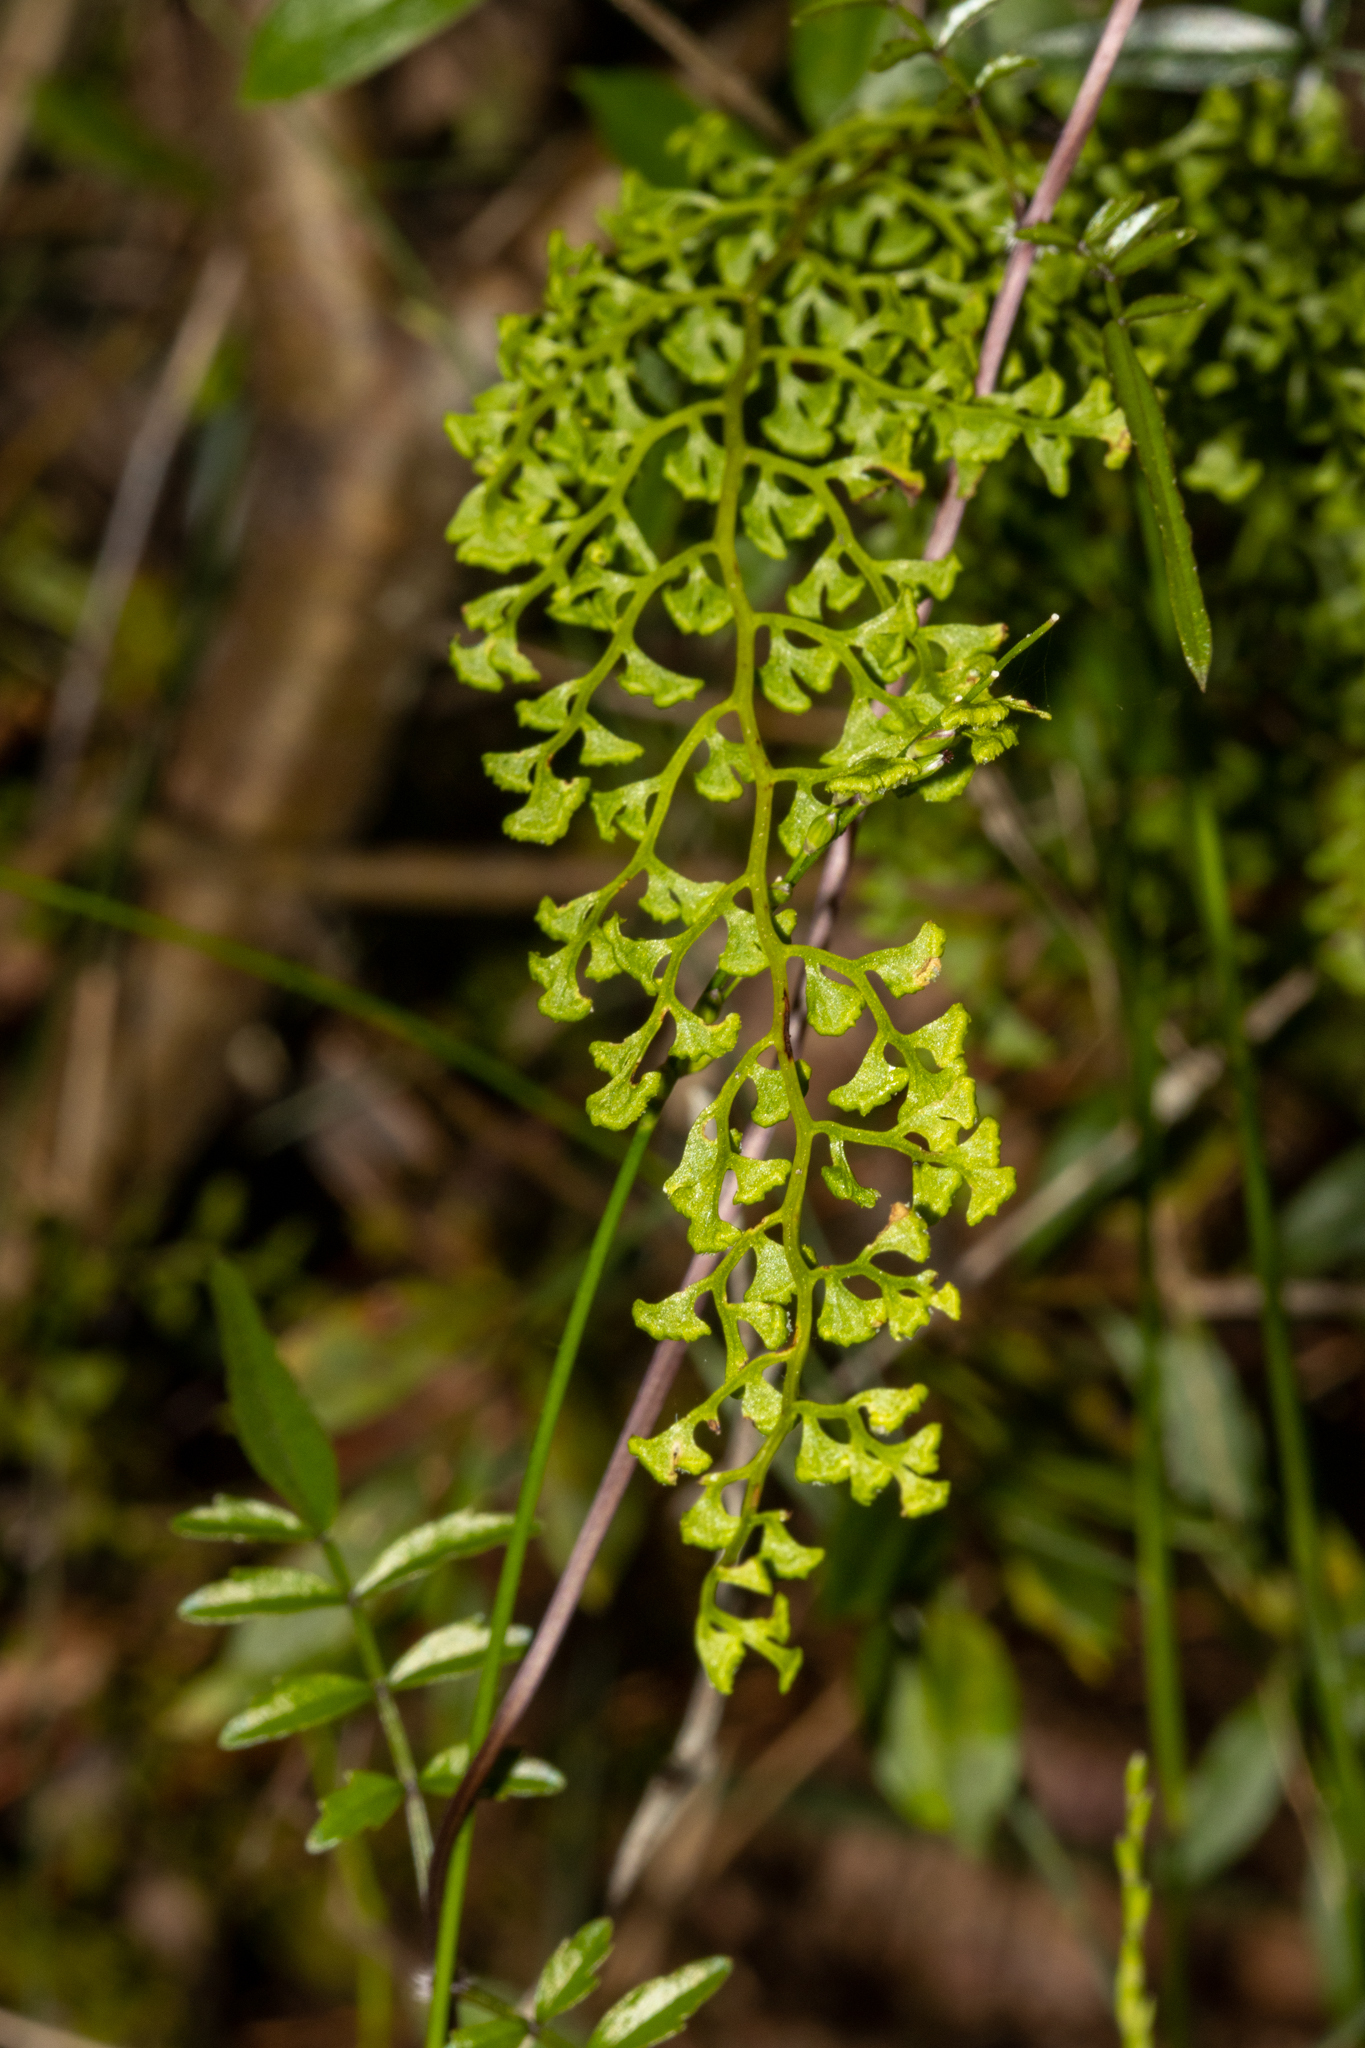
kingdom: Plantae
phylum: Tracheophyta
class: Polypodiopsida
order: Polypodiales
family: Lindsaeaceae
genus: Lindsaea
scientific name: Lindsaea microphylla
